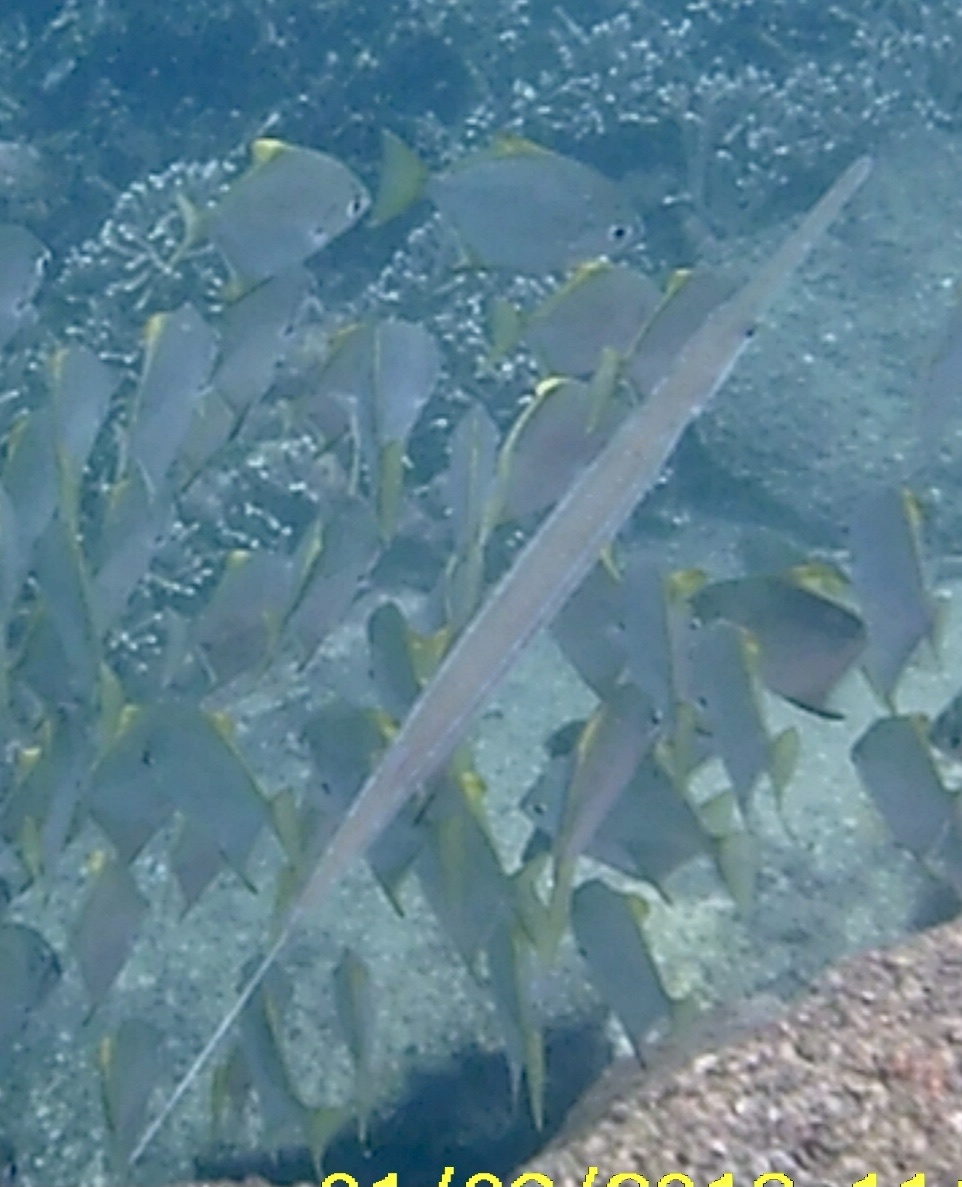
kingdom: Animalia
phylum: Chordata
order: Syngnathiformes
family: Fistulariidae
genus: Fistularia
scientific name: Fistularia commersonii
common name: Bluespotted cornetfish
